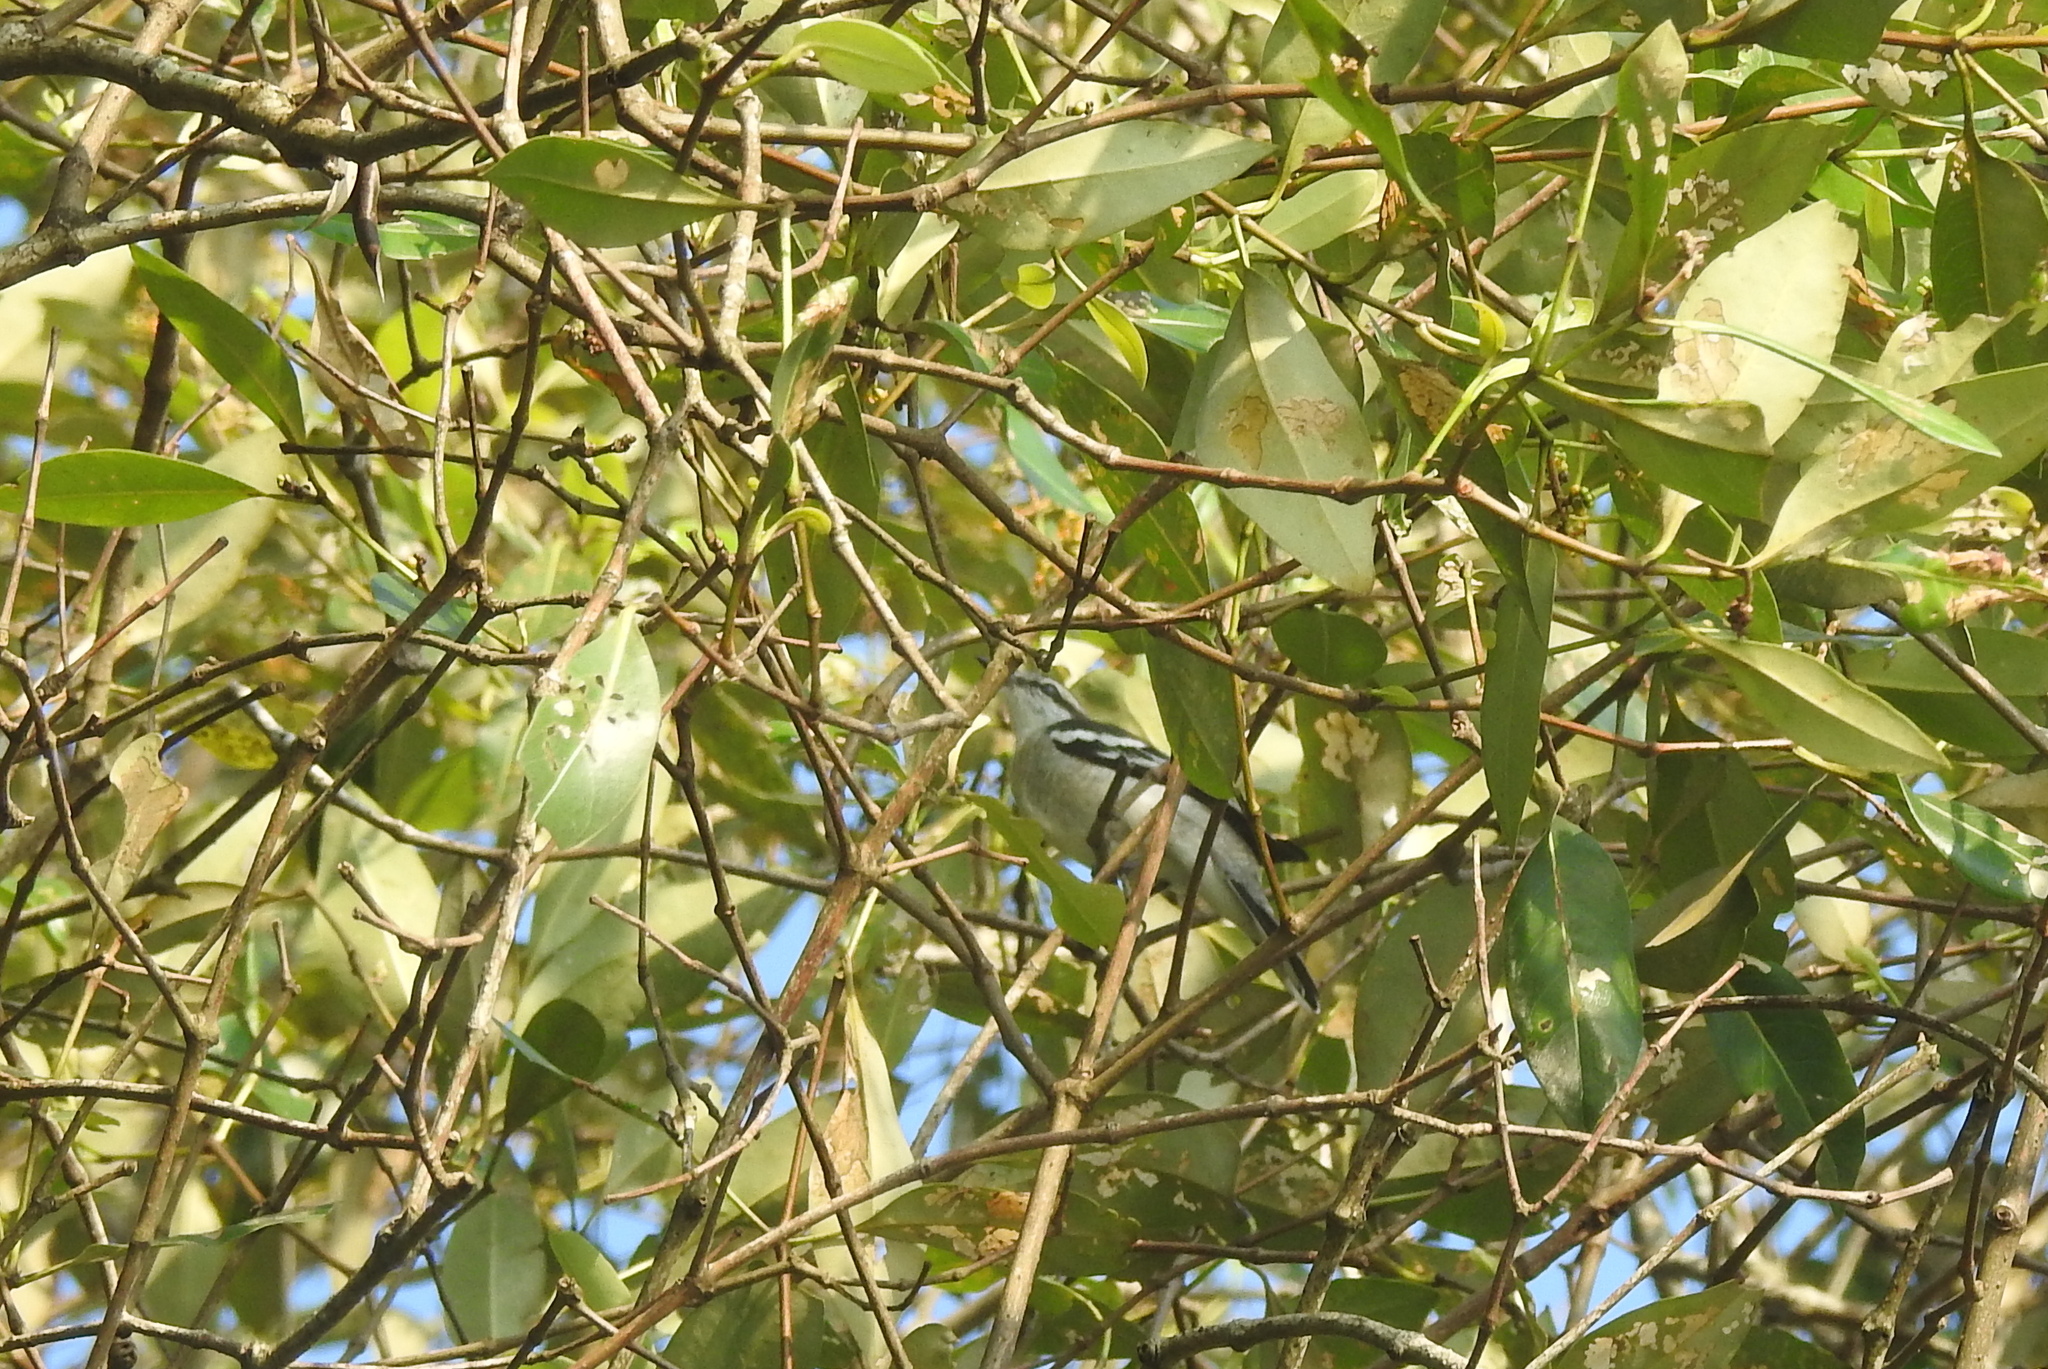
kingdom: Animalia
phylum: Chordata
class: Aves
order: Passeriformes
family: Campephagidae
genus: Lalage
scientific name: Lalage nigra
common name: Pied triller
